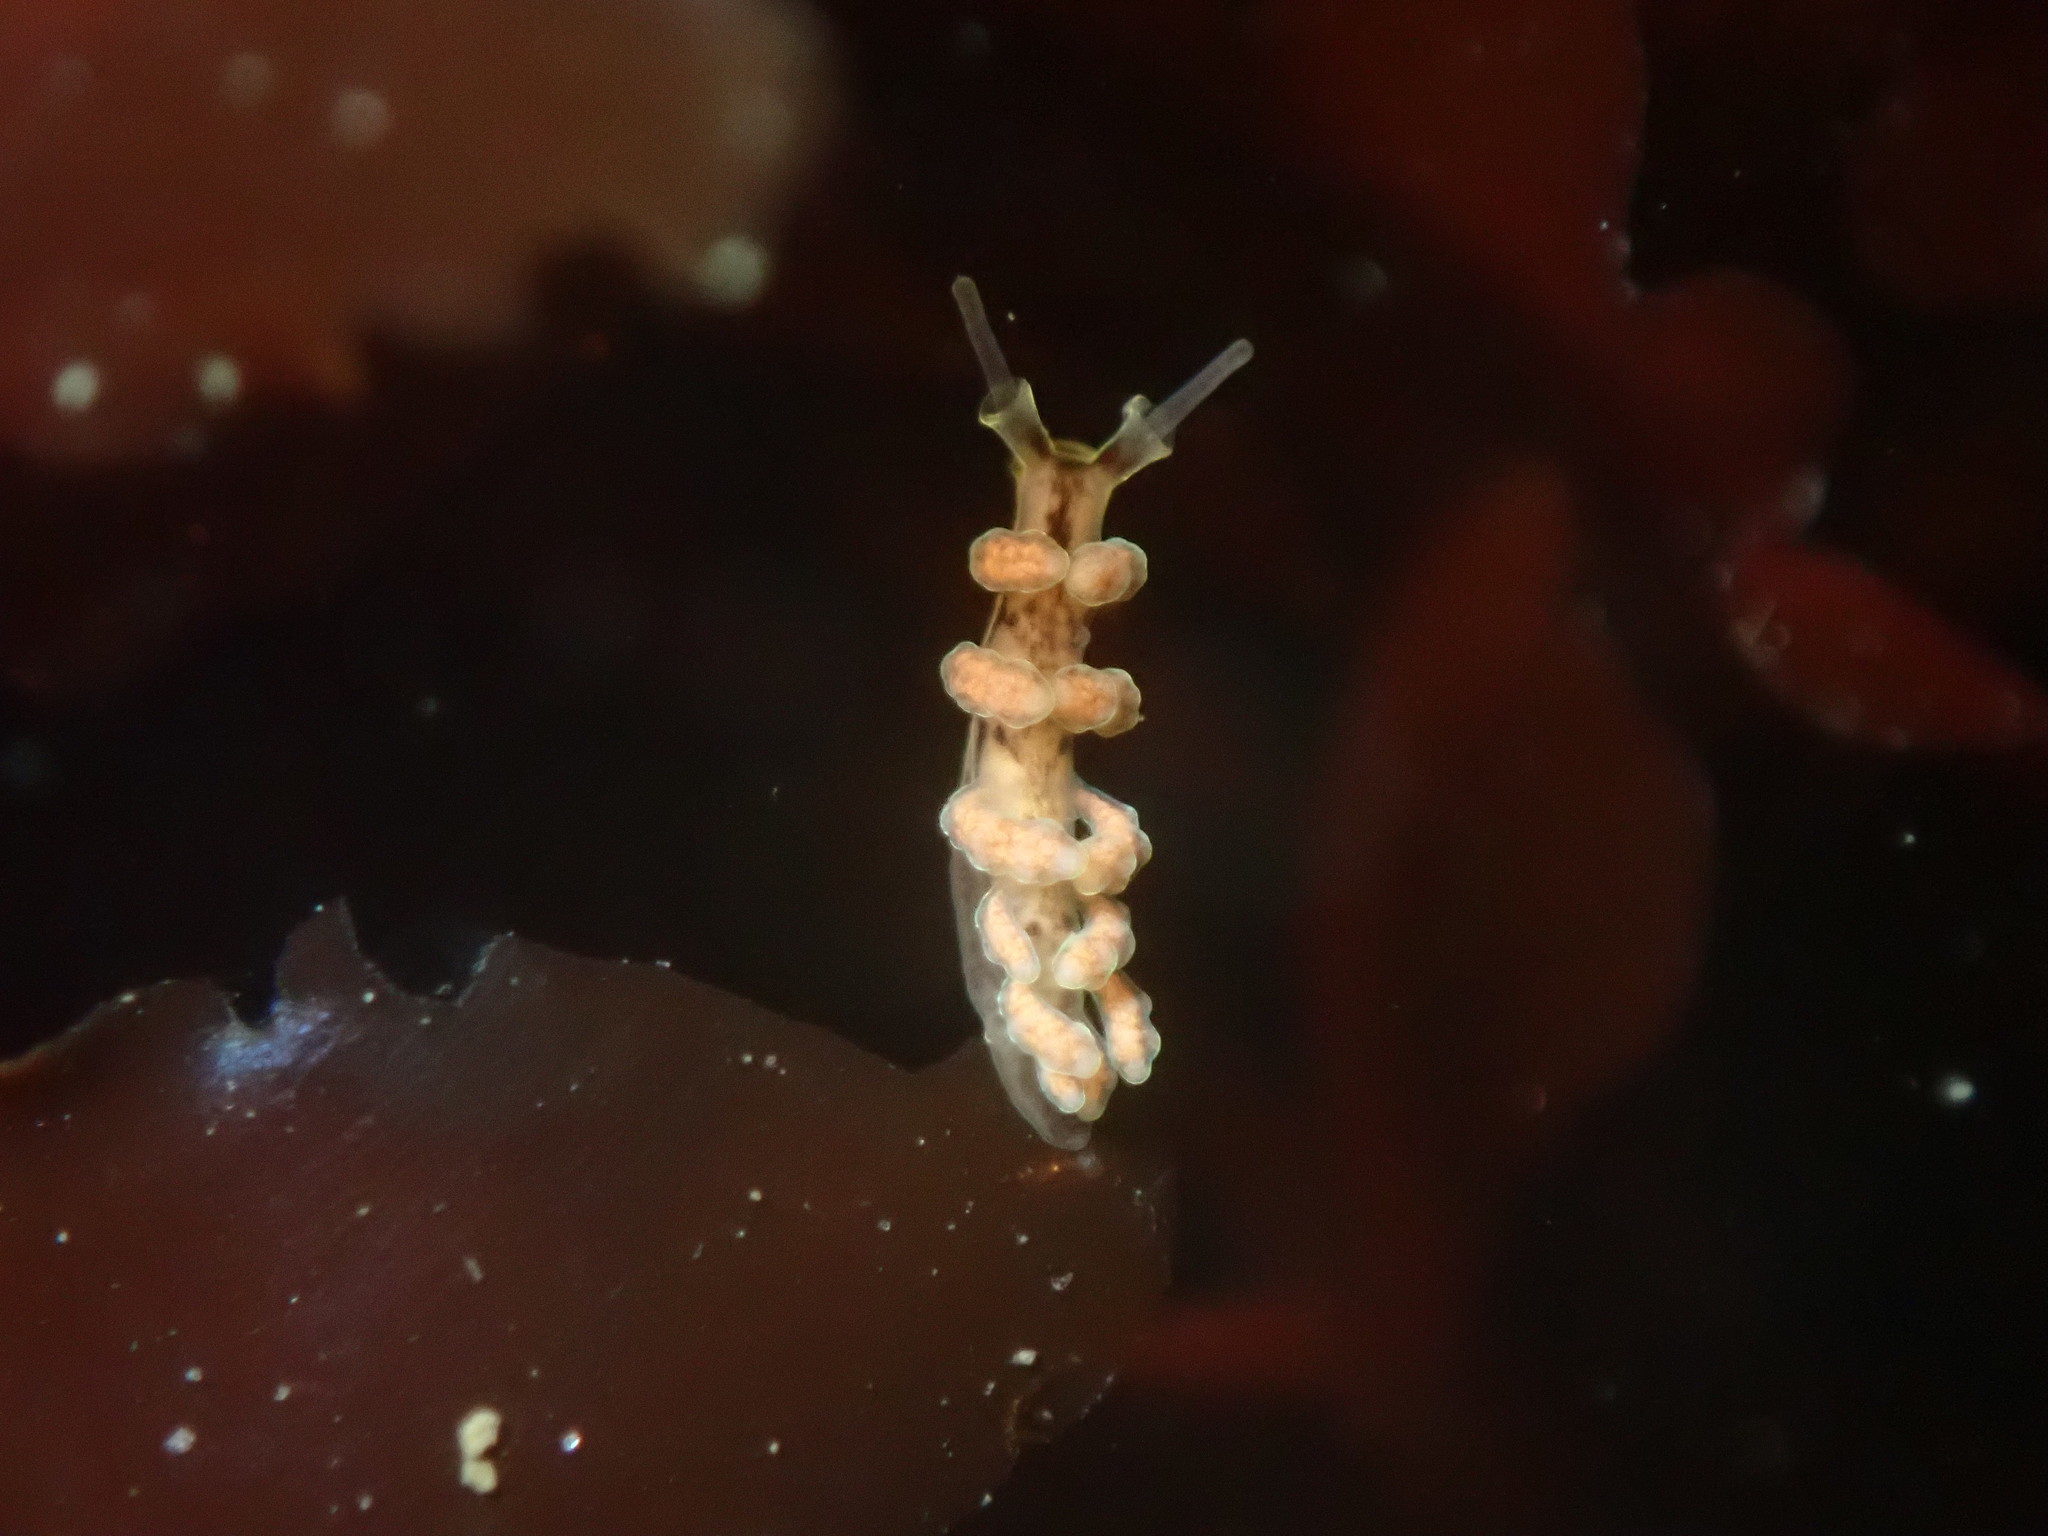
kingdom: Animalia
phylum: Mollusca
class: Gastropoda
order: Nudibranchia
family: Dotidae
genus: Doto
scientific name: Doto columbiana
